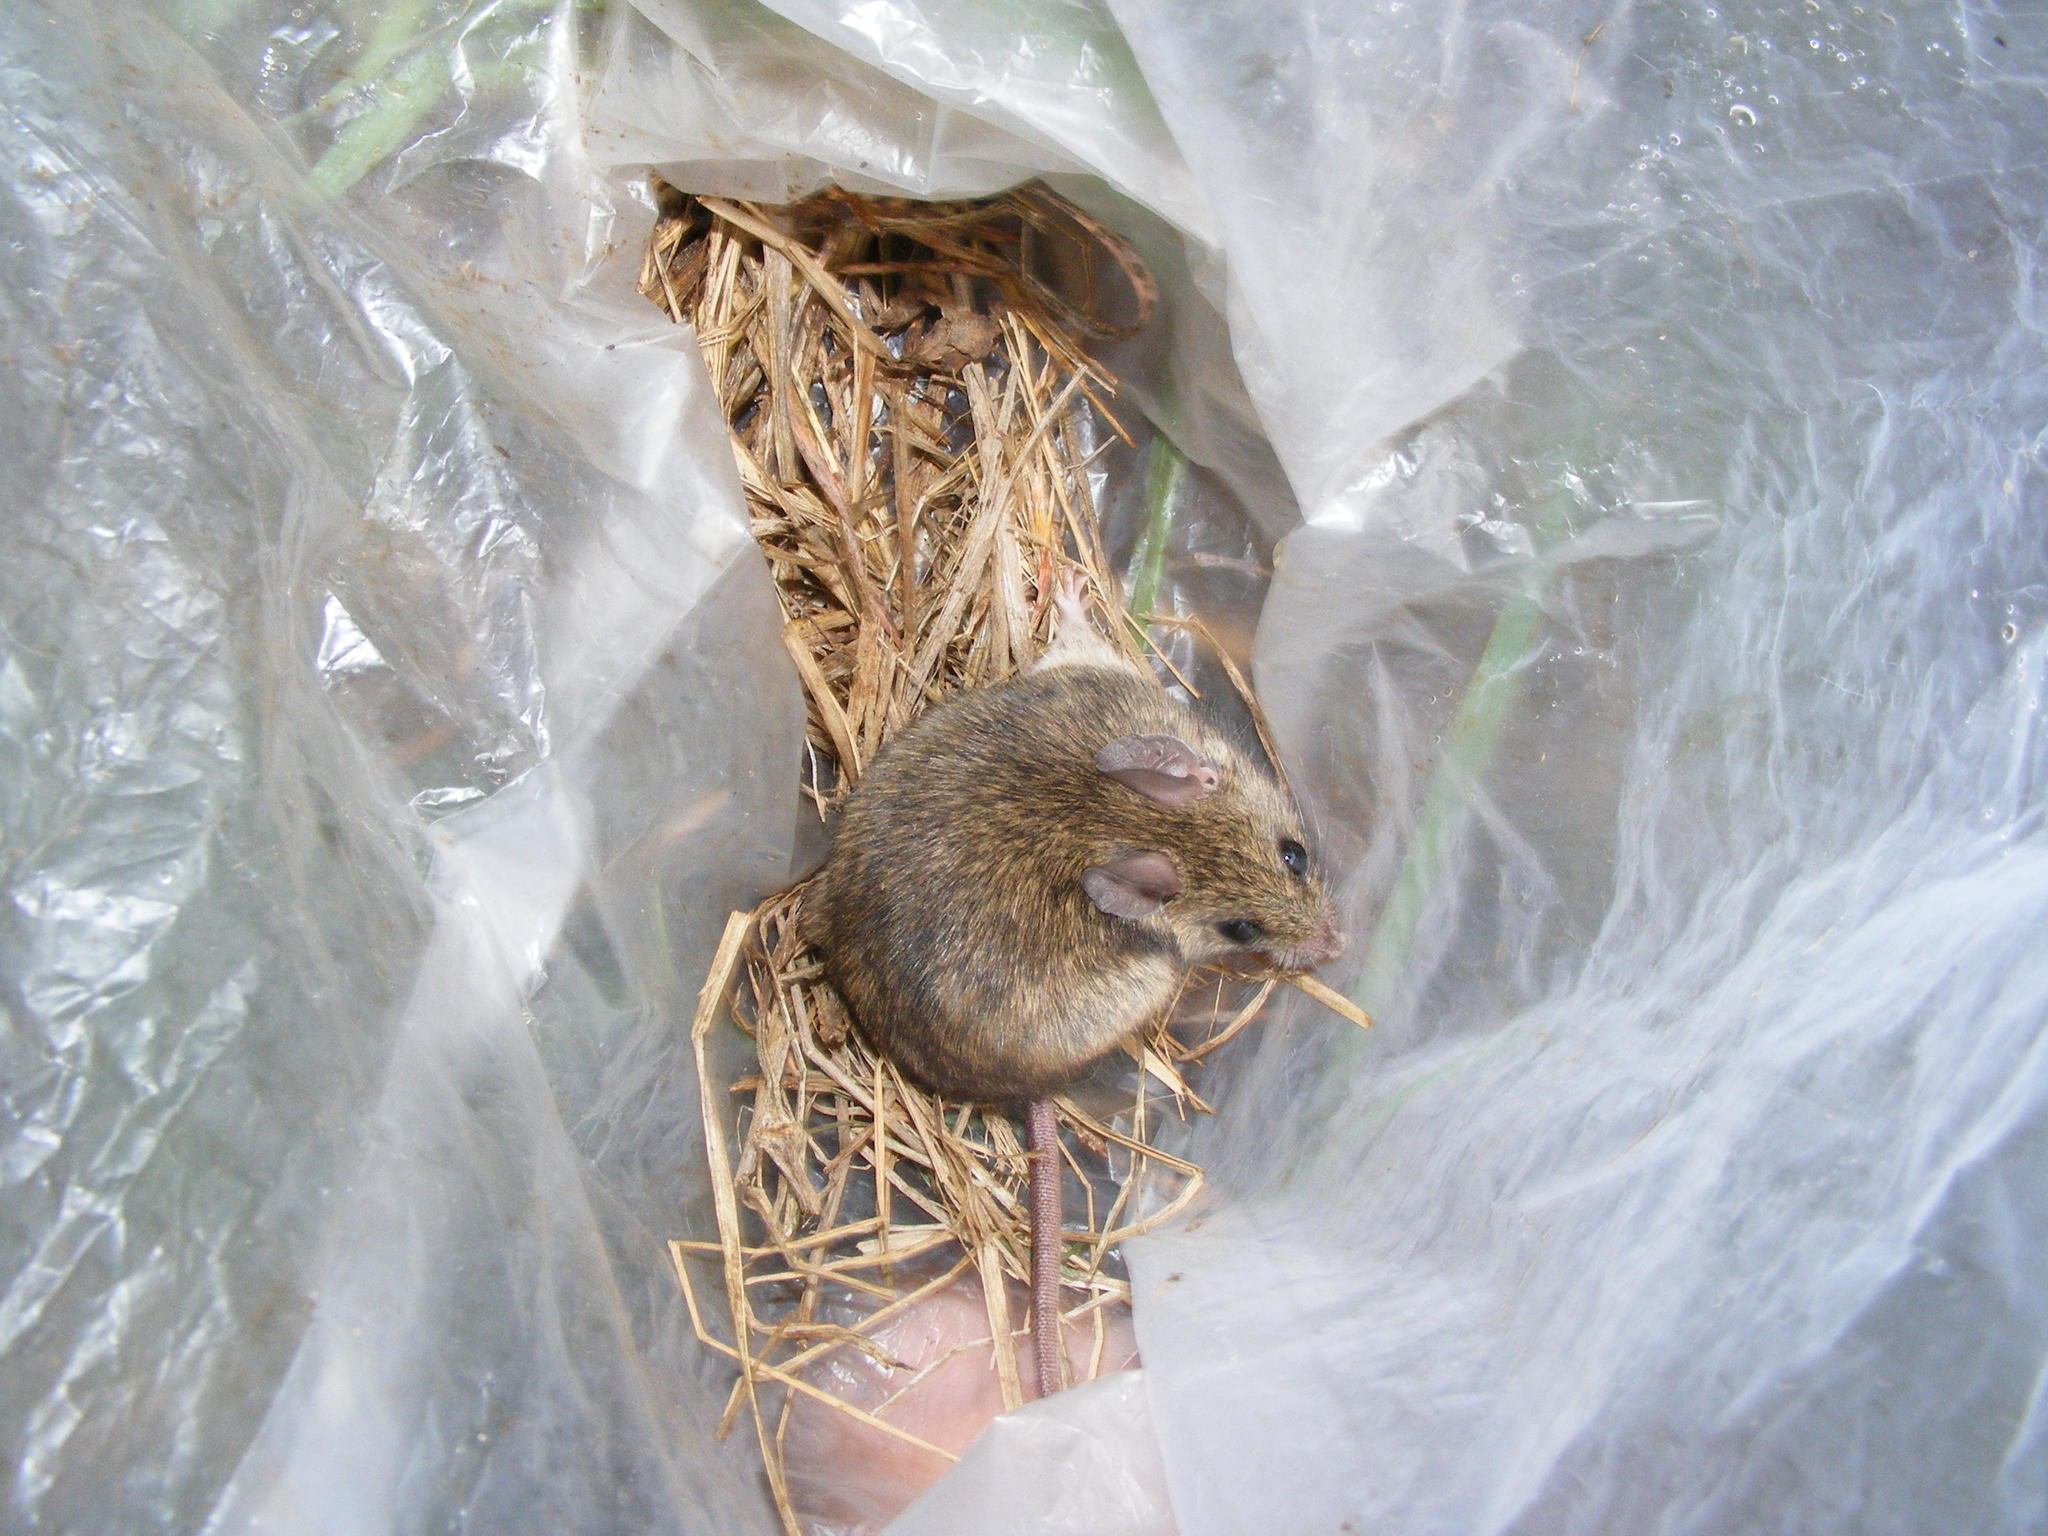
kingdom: Animalia
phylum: Chordata
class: Mammalia
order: Rodentia
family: Muridae
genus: Mastomys
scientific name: Mastomys natalensis
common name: Natal mastomys
